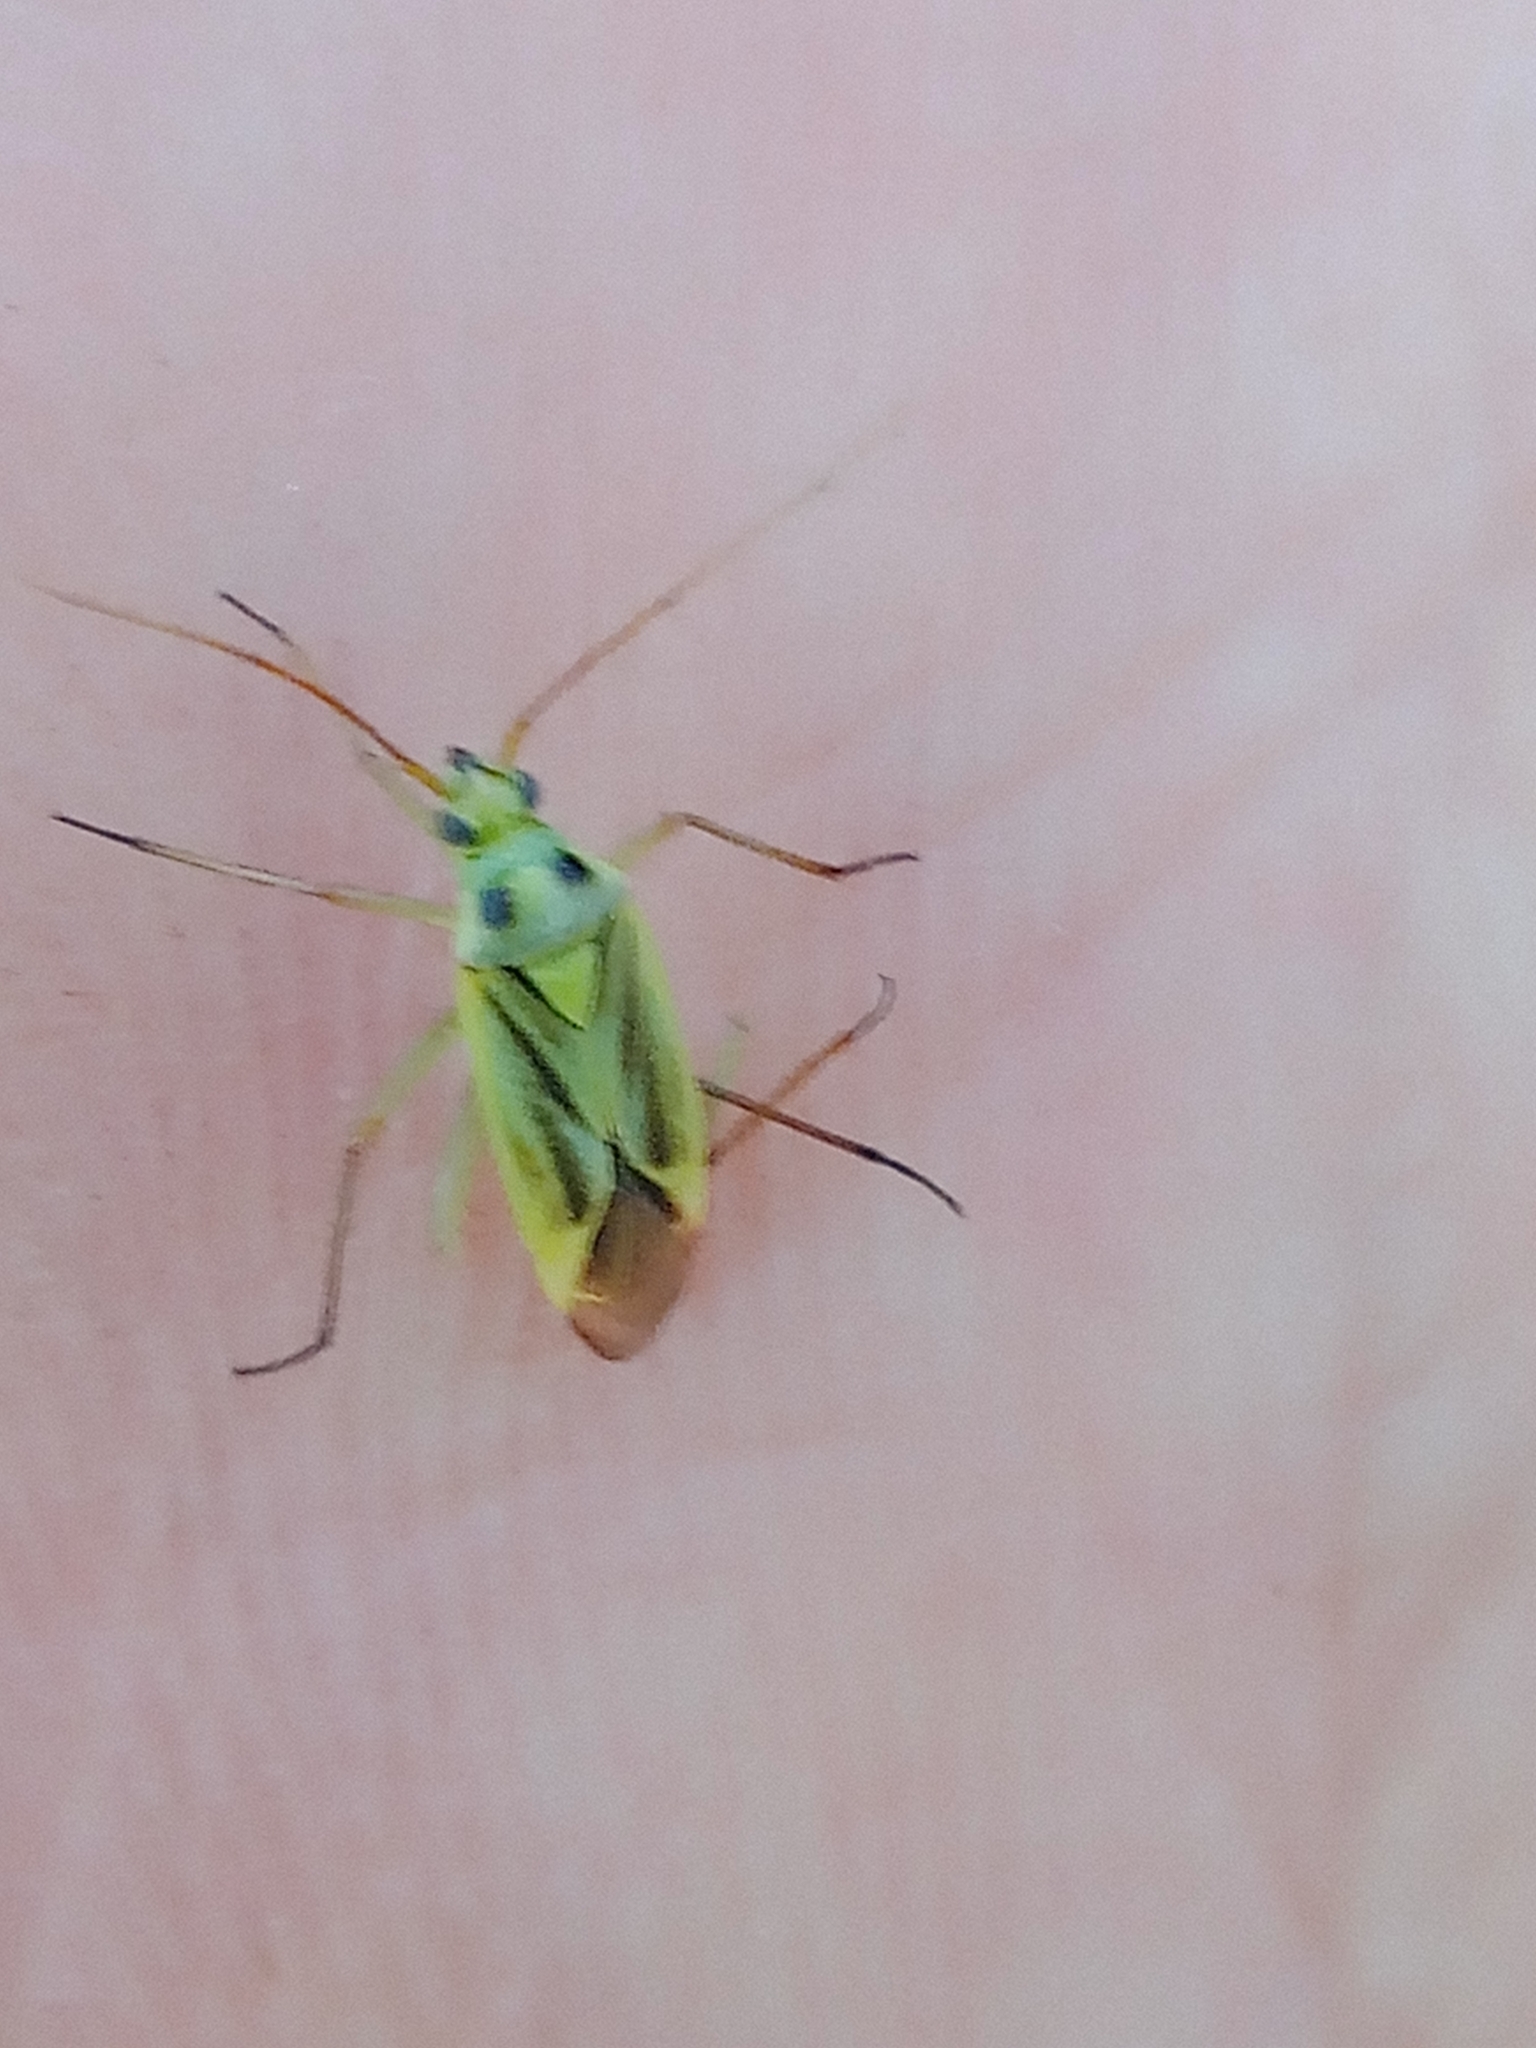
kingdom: Animalia
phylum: Arthropoda
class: Insecta
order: Hemiptera
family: Miridae
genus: Stenotus
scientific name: Stenotus binotatus
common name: Plant bug
